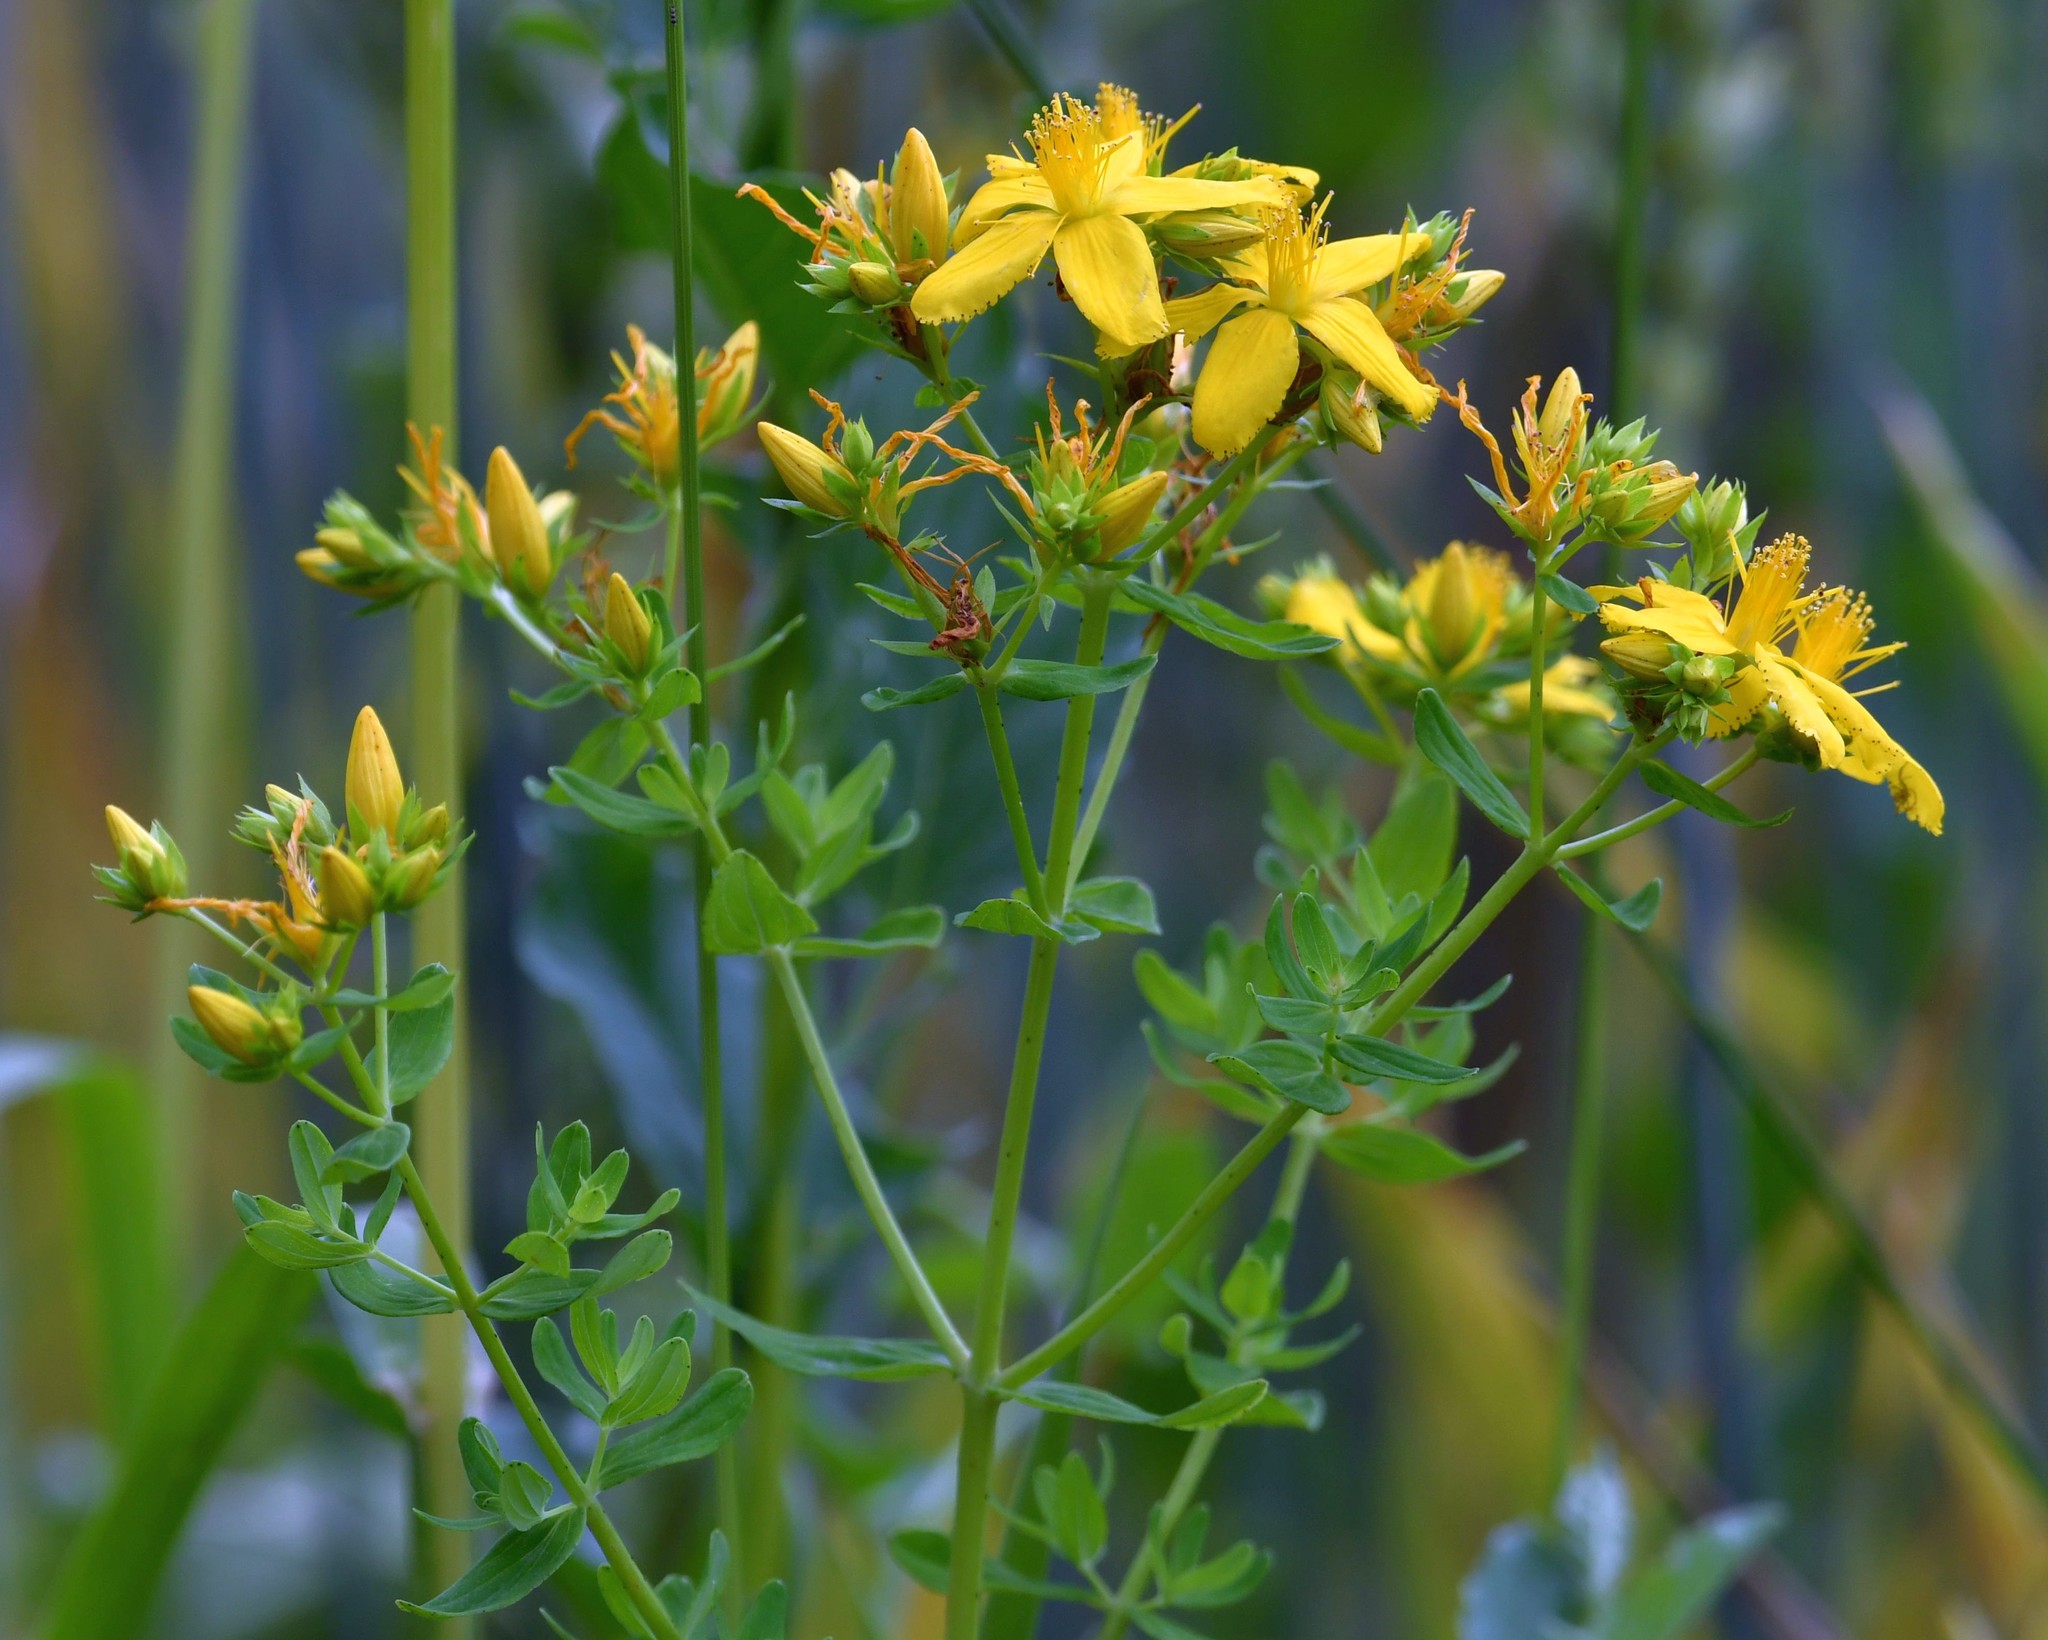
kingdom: Plantae
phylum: Tracheophyta
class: Magnoliopsida
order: Malpighiales
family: Hypericaceae
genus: Hypericum
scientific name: Hypericum perforatum
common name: Common st. johnswort
